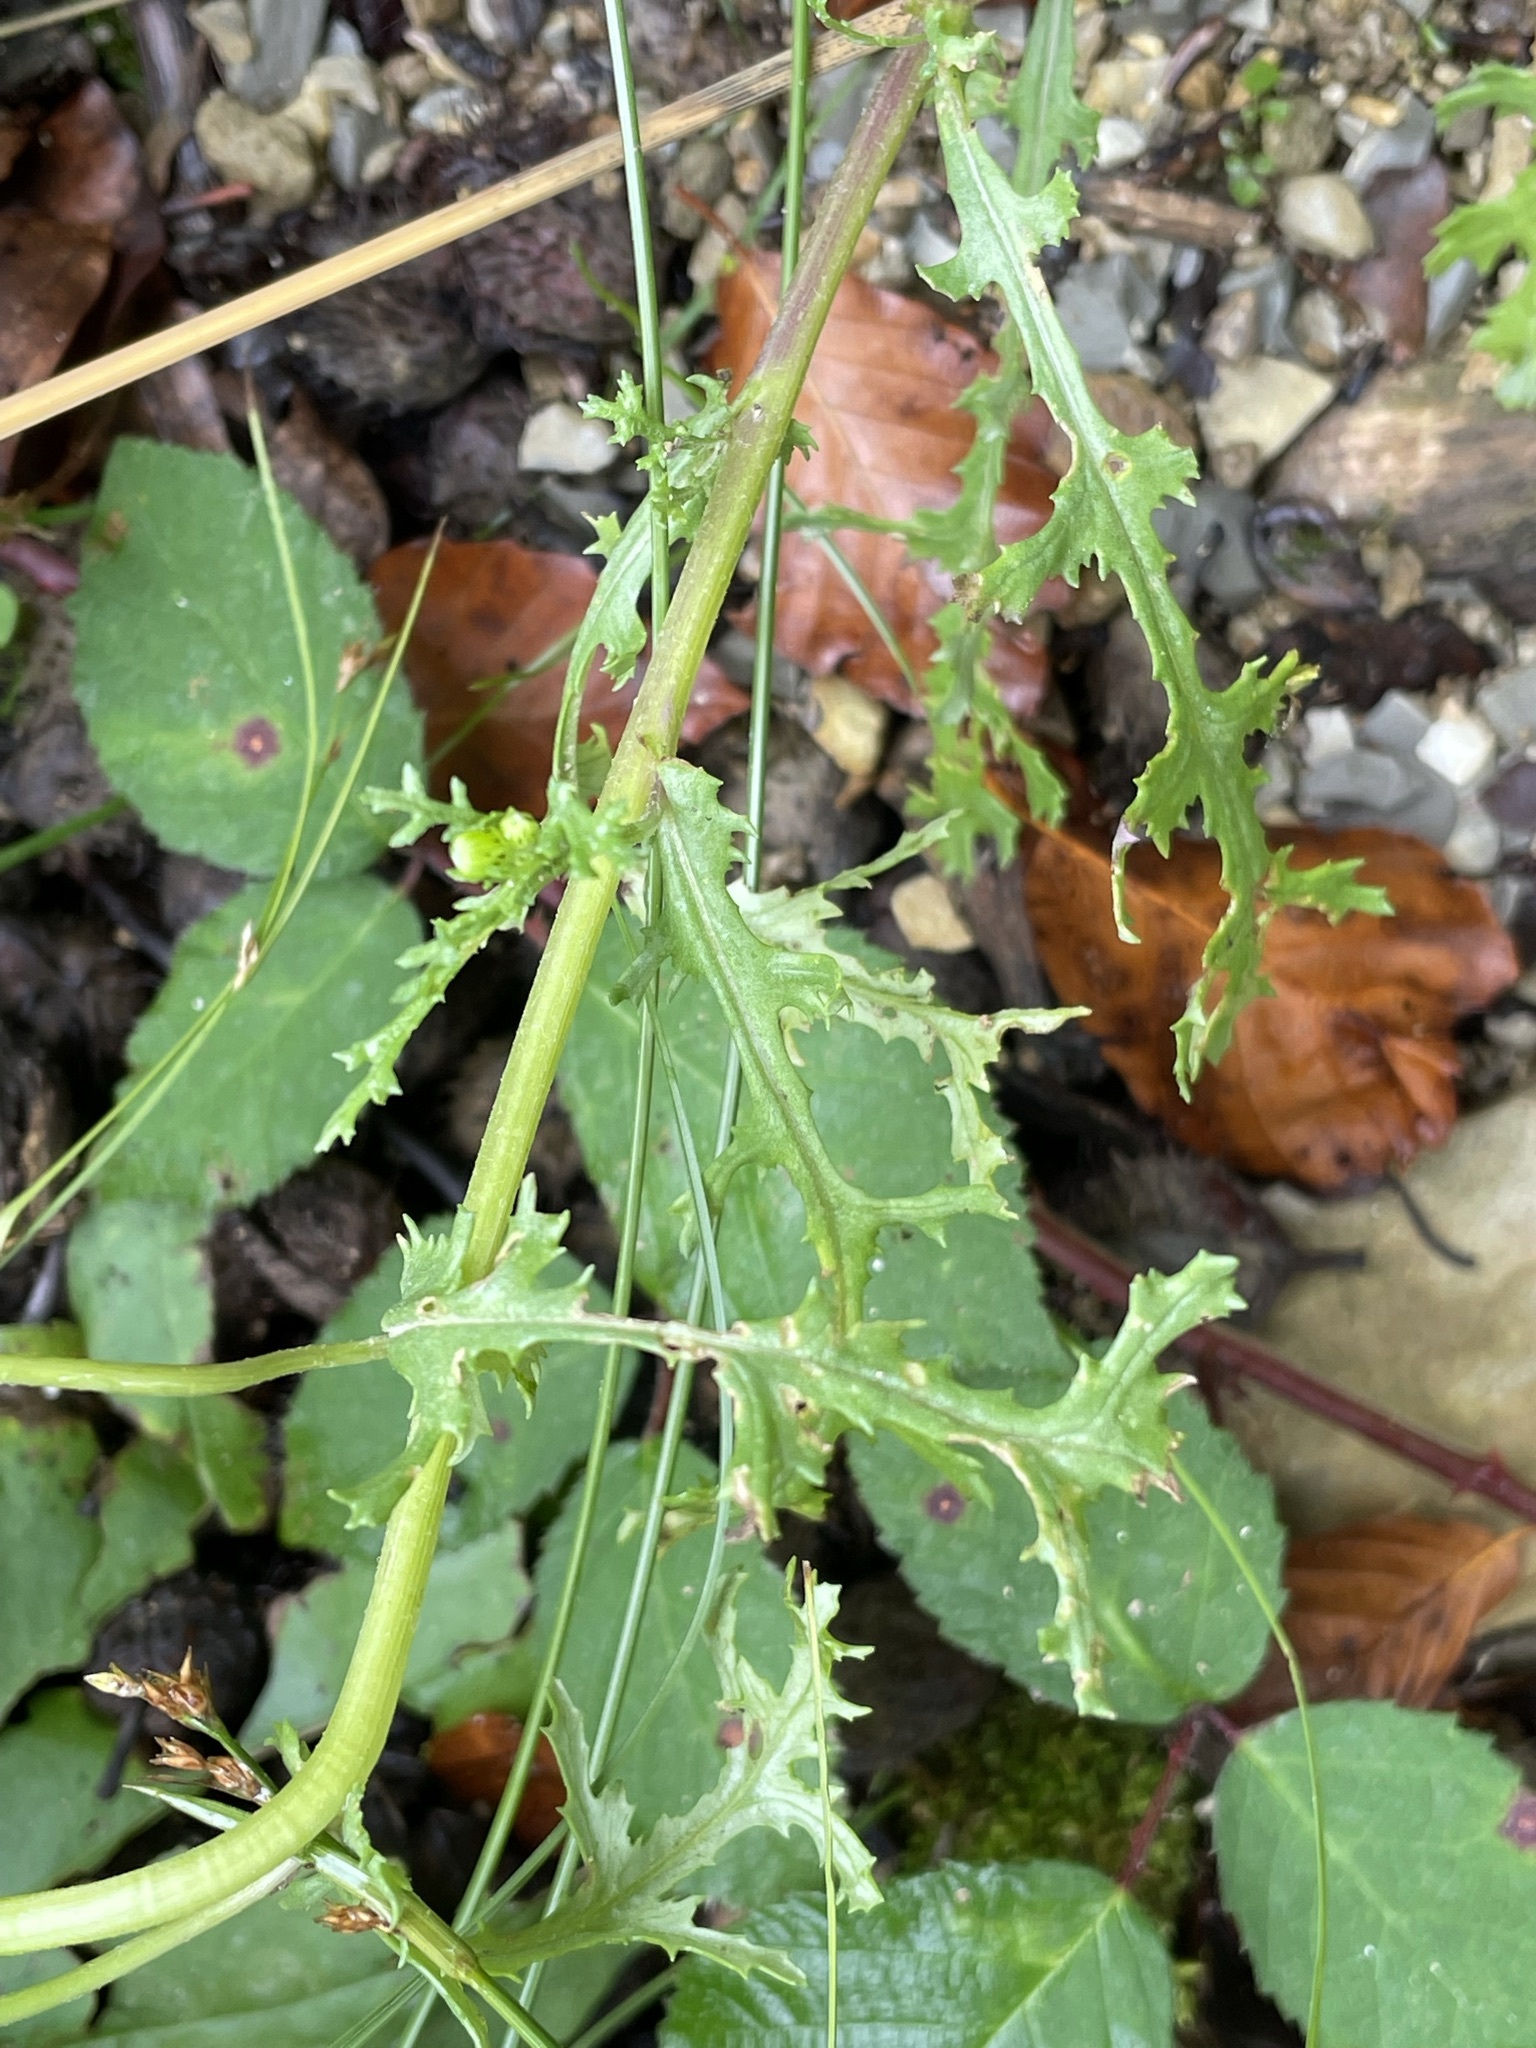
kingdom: Plantae
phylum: Tracheophyta
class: Magnoliopsida
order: Asterales
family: Asteraceae
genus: Senecio
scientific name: Senecio vulgaris
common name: Old-man-in-the-spring
